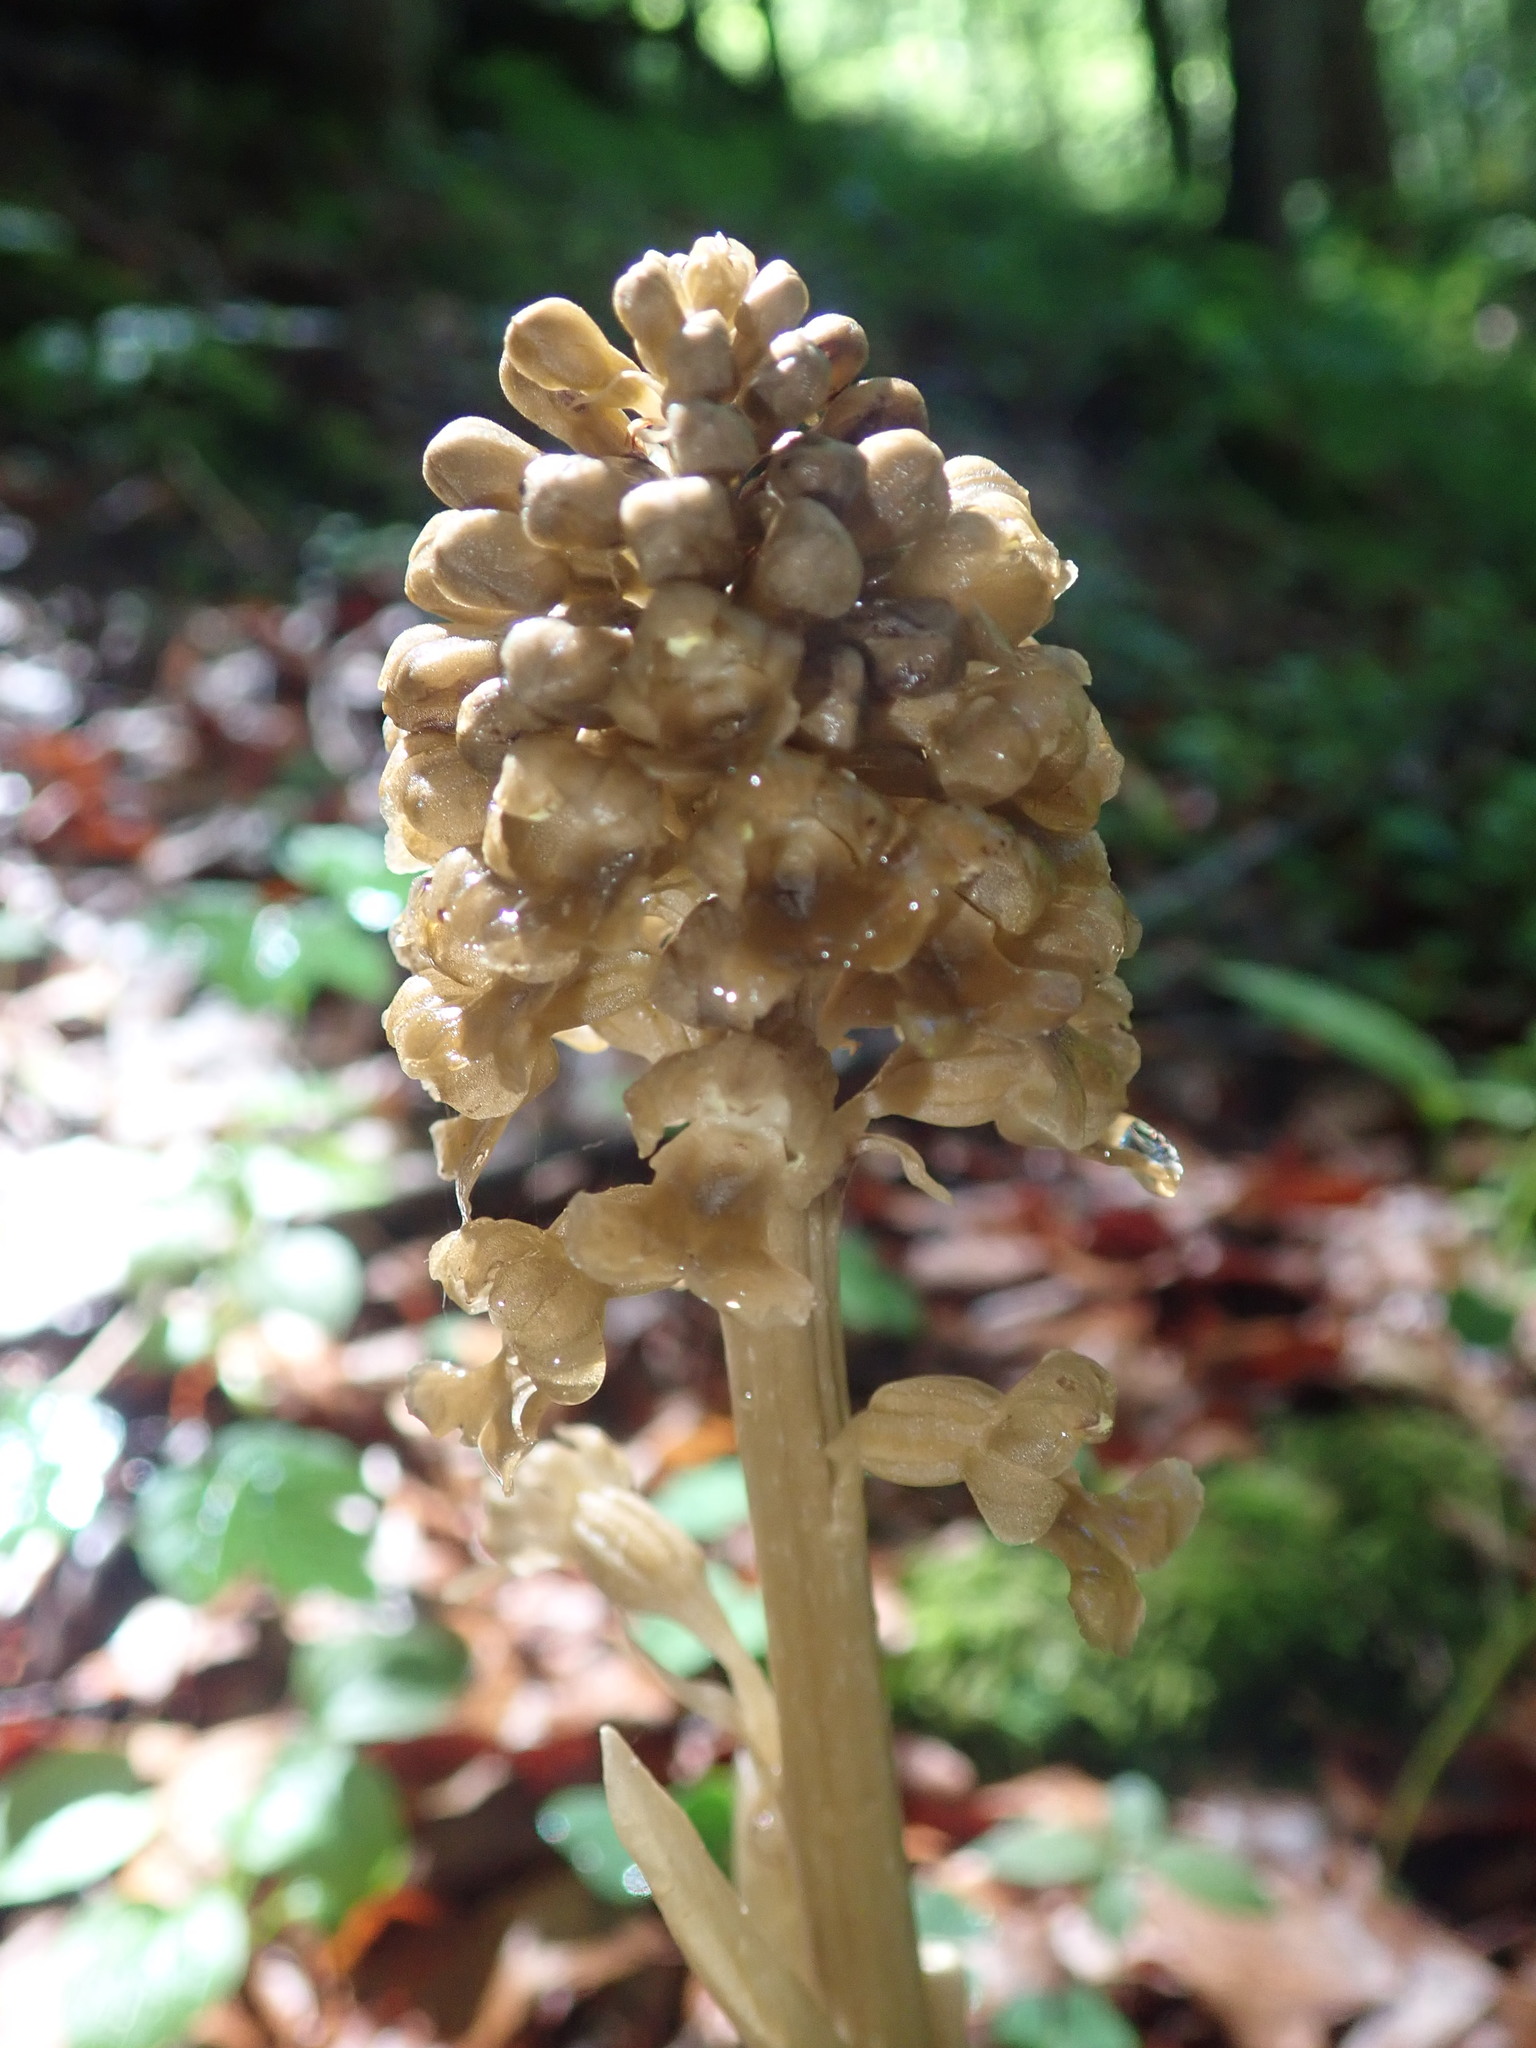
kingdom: Plantae
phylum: Tracheophyta
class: Liliopsida
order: Asparagales
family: Orchidaceae
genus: Neottia
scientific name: Neottia nidus-avis
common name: Bird's-nest orchid
